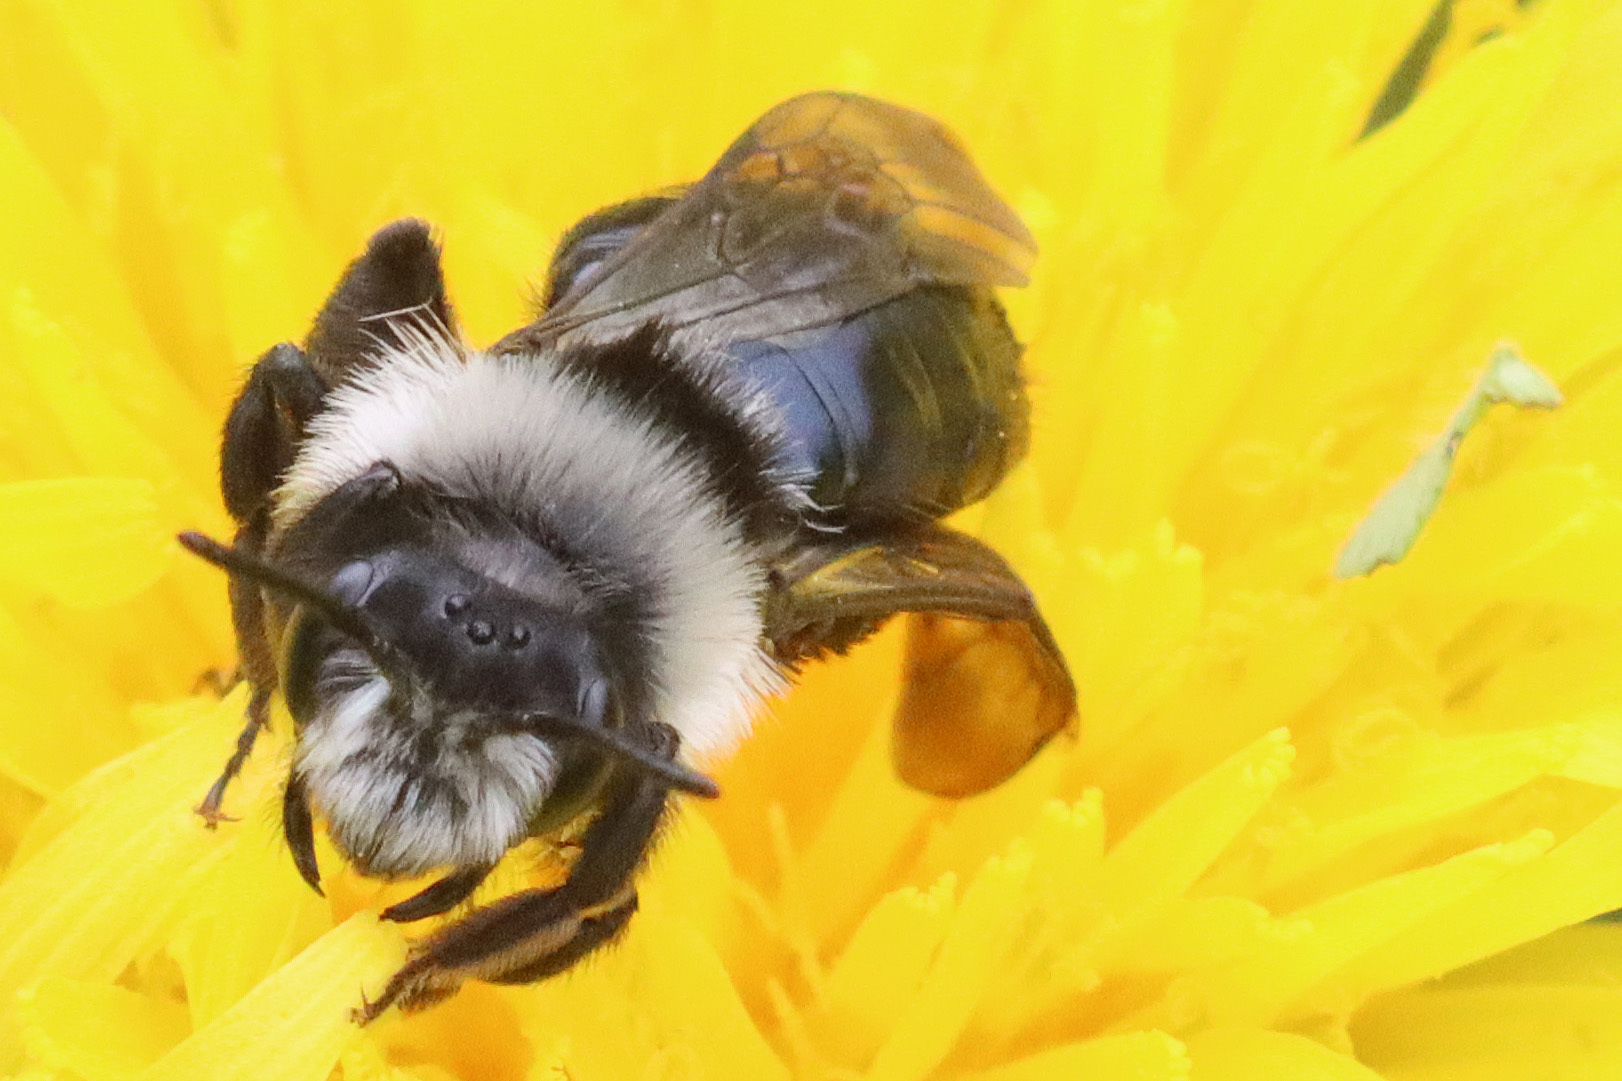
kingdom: Animalia
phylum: Arthropoda
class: Insecta
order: Hymenoptera
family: Andrenidae
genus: Andrena
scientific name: Andrena cineraria
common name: Ashy mining bee
